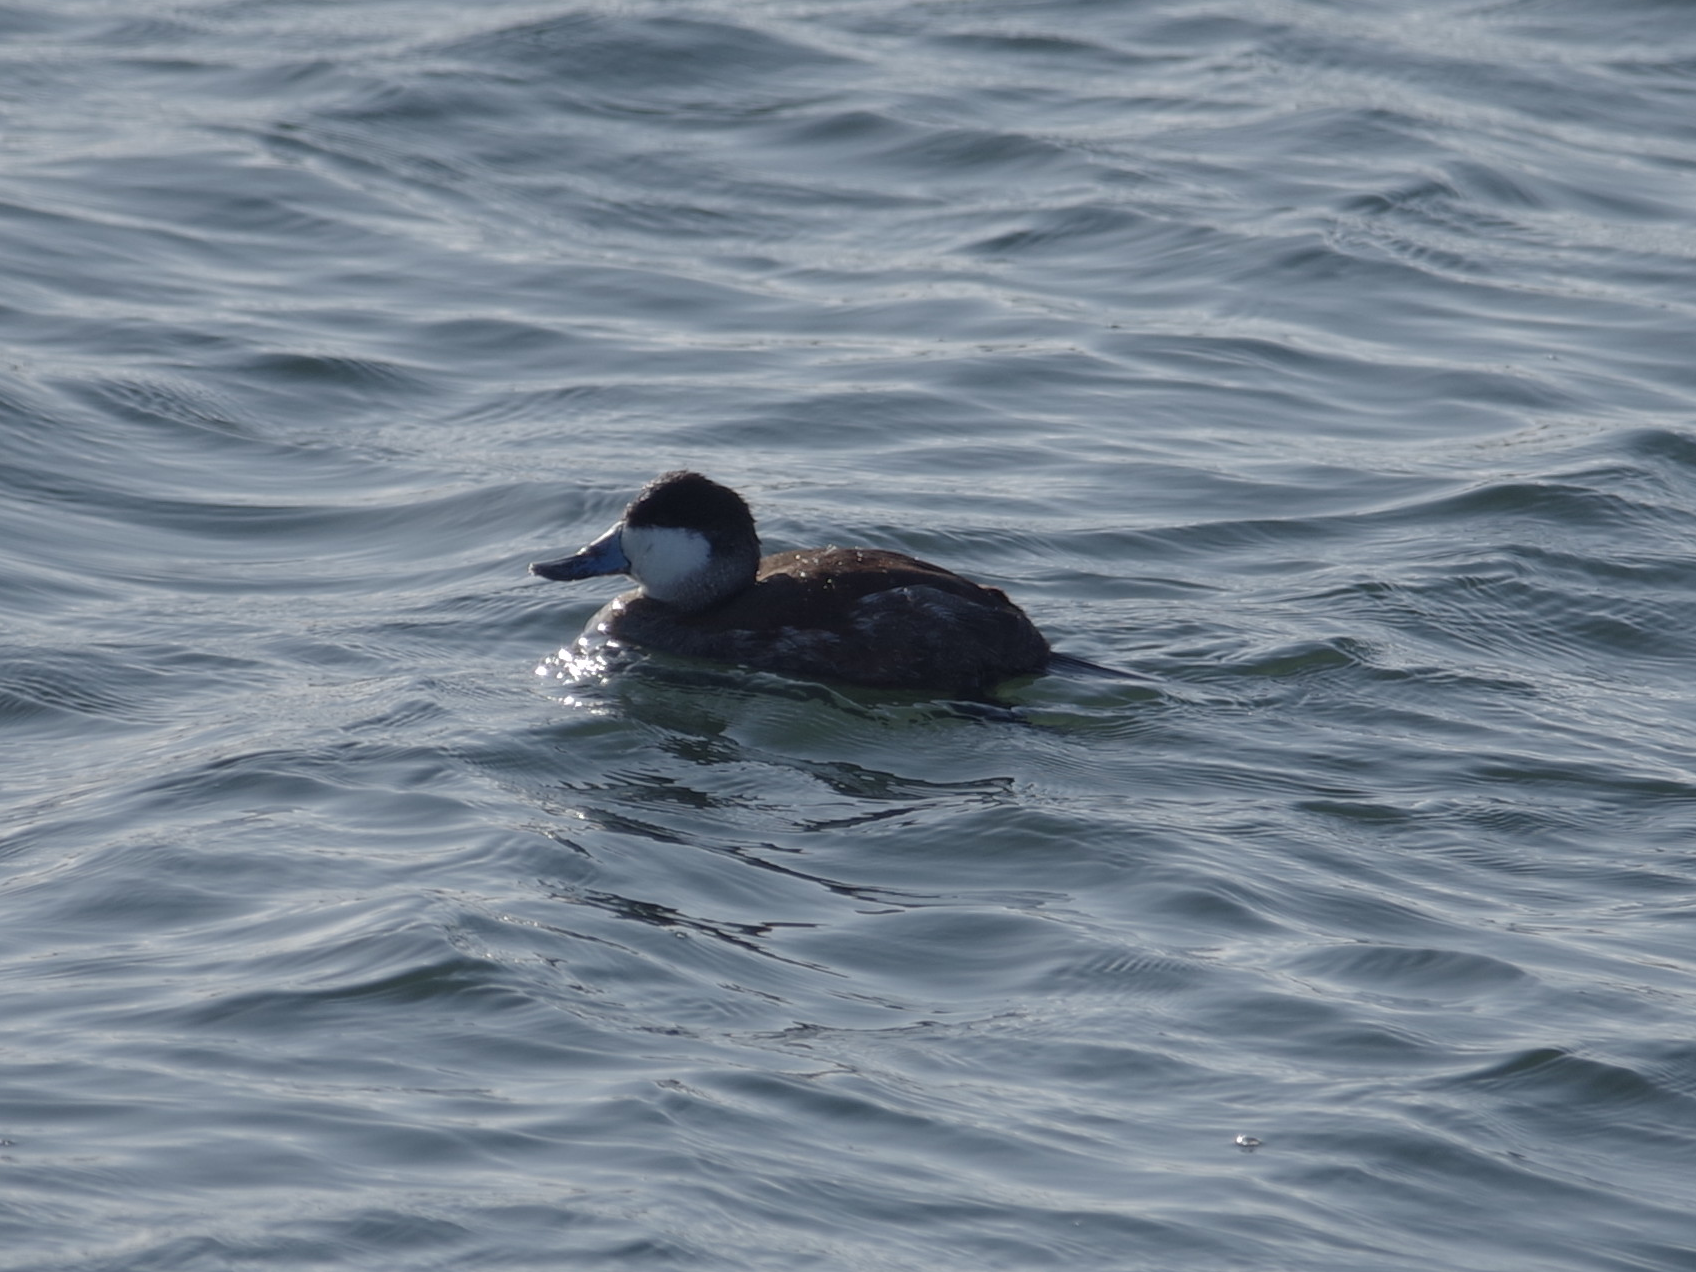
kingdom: Animalia
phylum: Chordata
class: Aves
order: Anseriformes
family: Anatidae
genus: Oxyura
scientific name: Oxyura jamaicensis
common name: Ruddy duck
